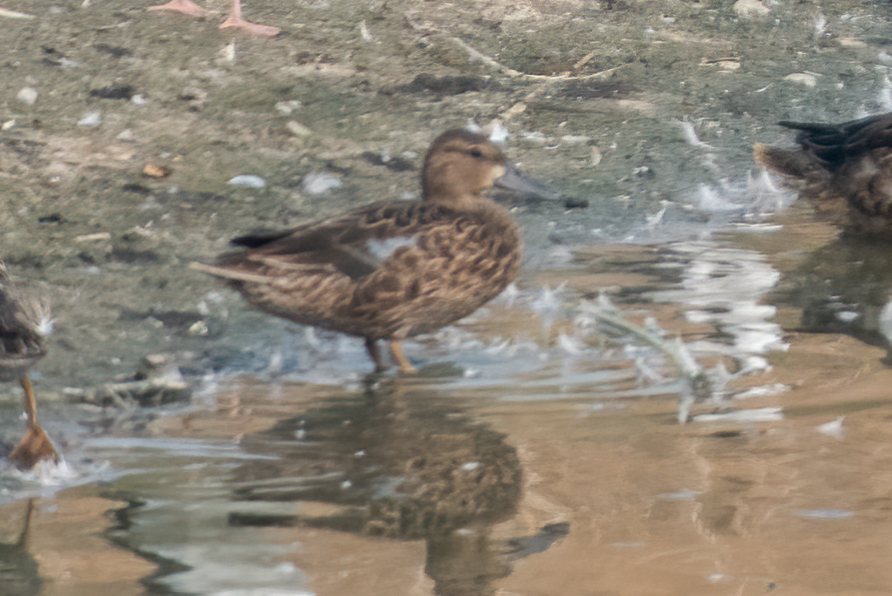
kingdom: Animalia
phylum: Chordata
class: Aves
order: Anseriformes
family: Anatidae
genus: Spatula
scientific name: Spatula discors
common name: Blue-winged teal
